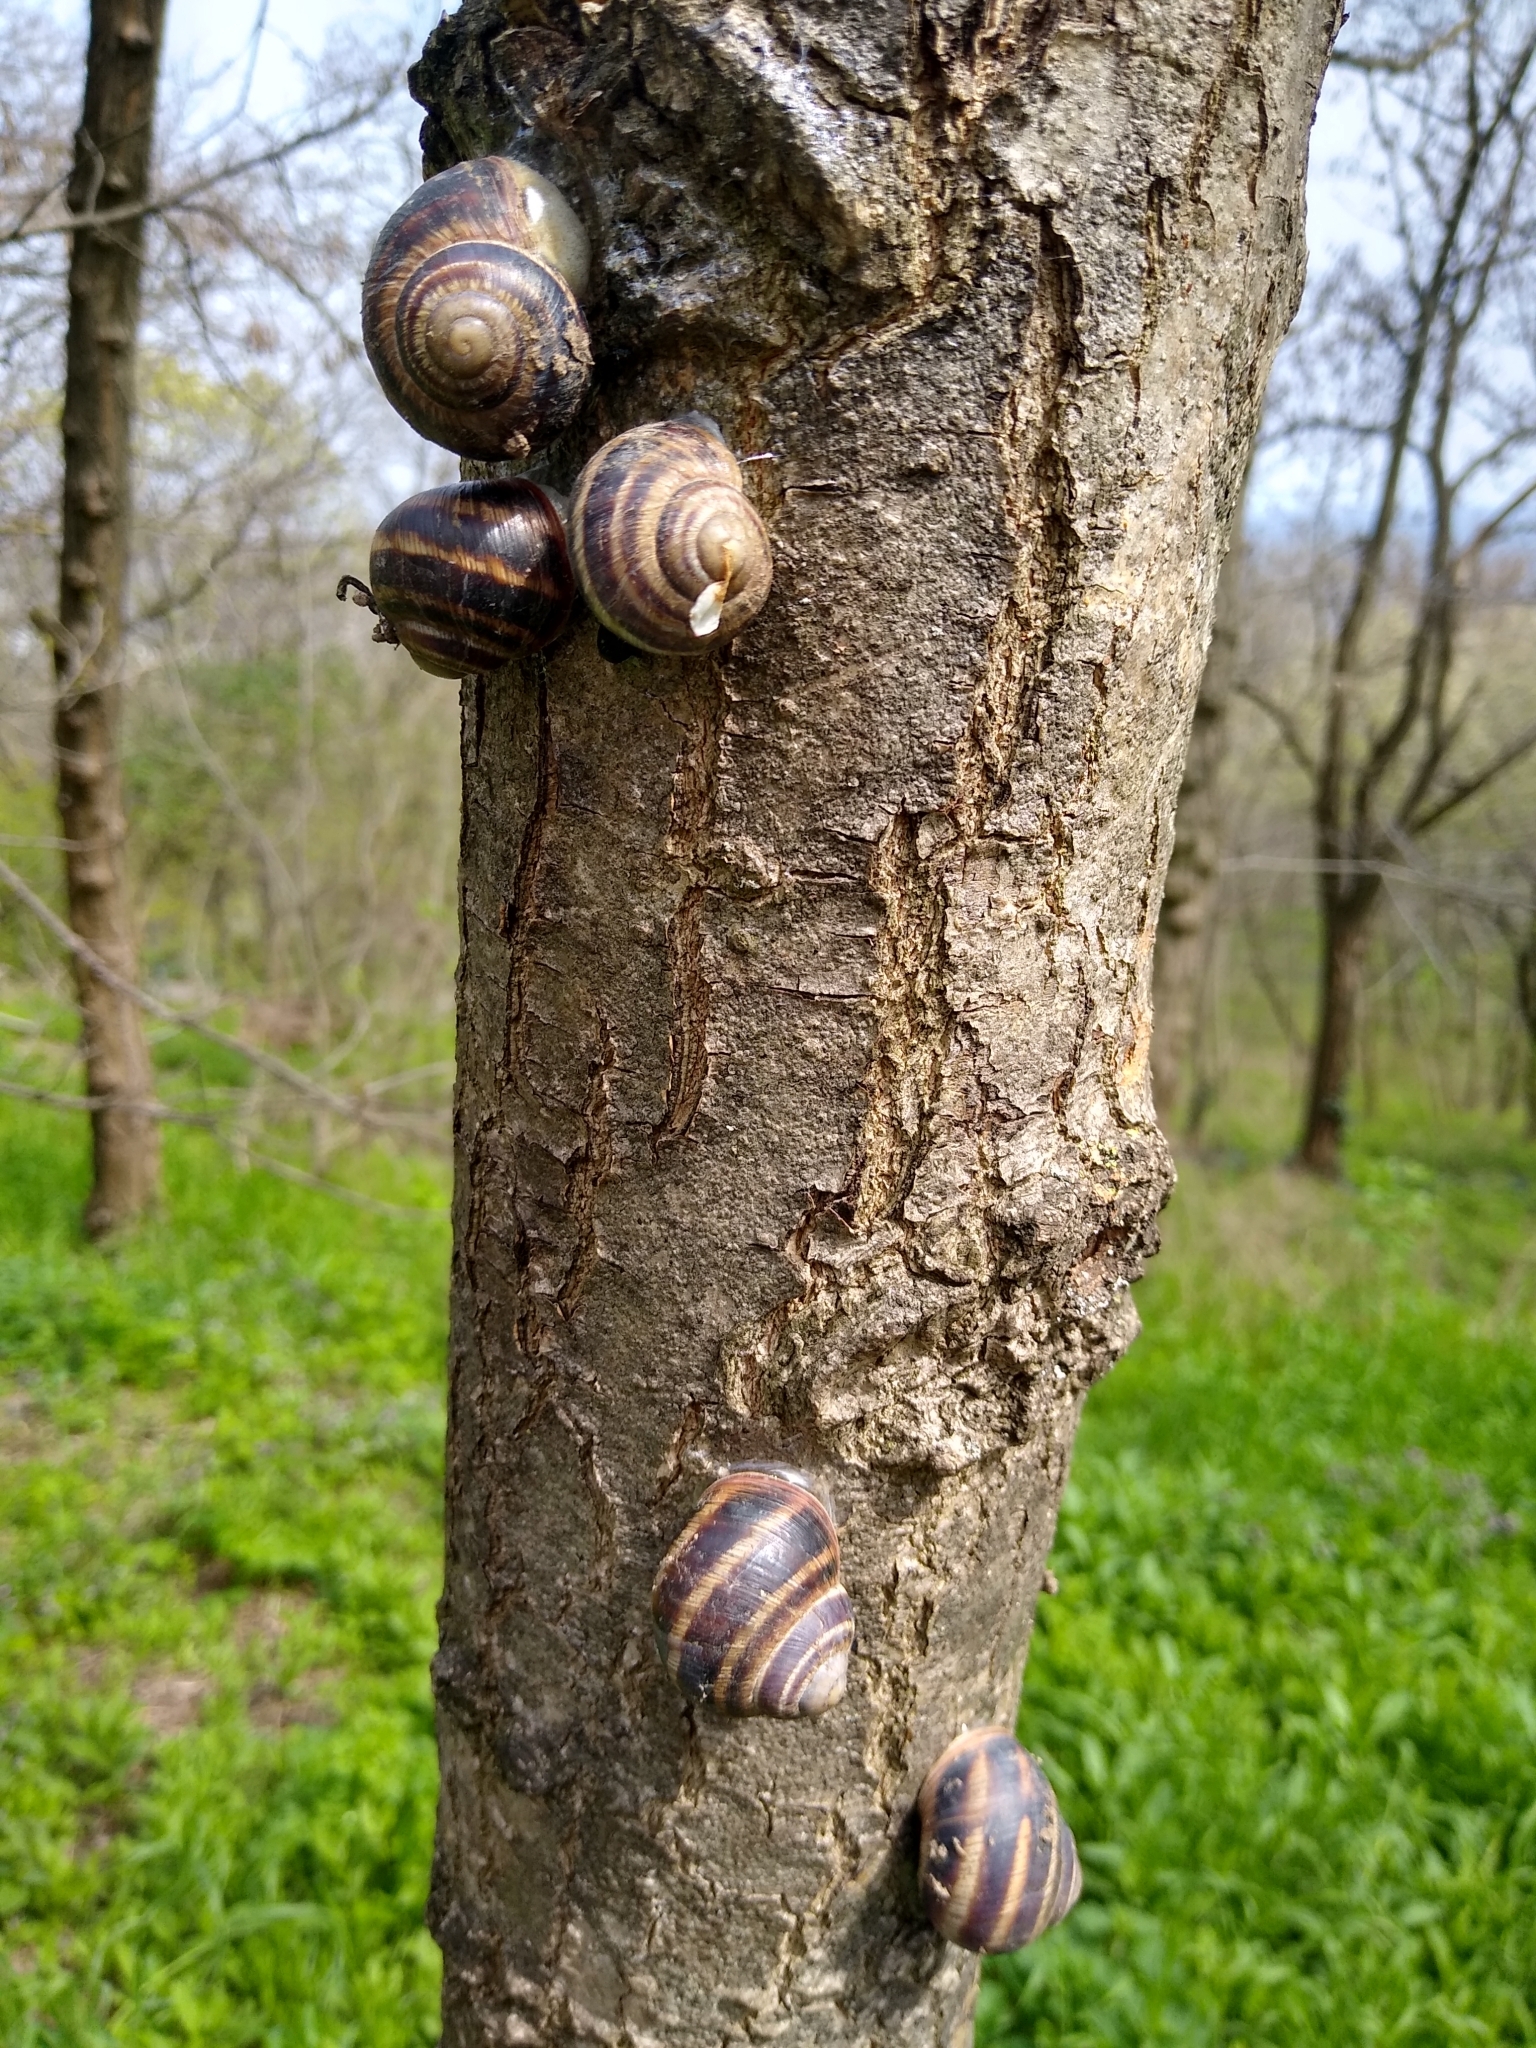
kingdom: Animalia
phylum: Mollusca
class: Gastropoda
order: Stylommatophora
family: Helicidae
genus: Helix
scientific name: Helix albescens
